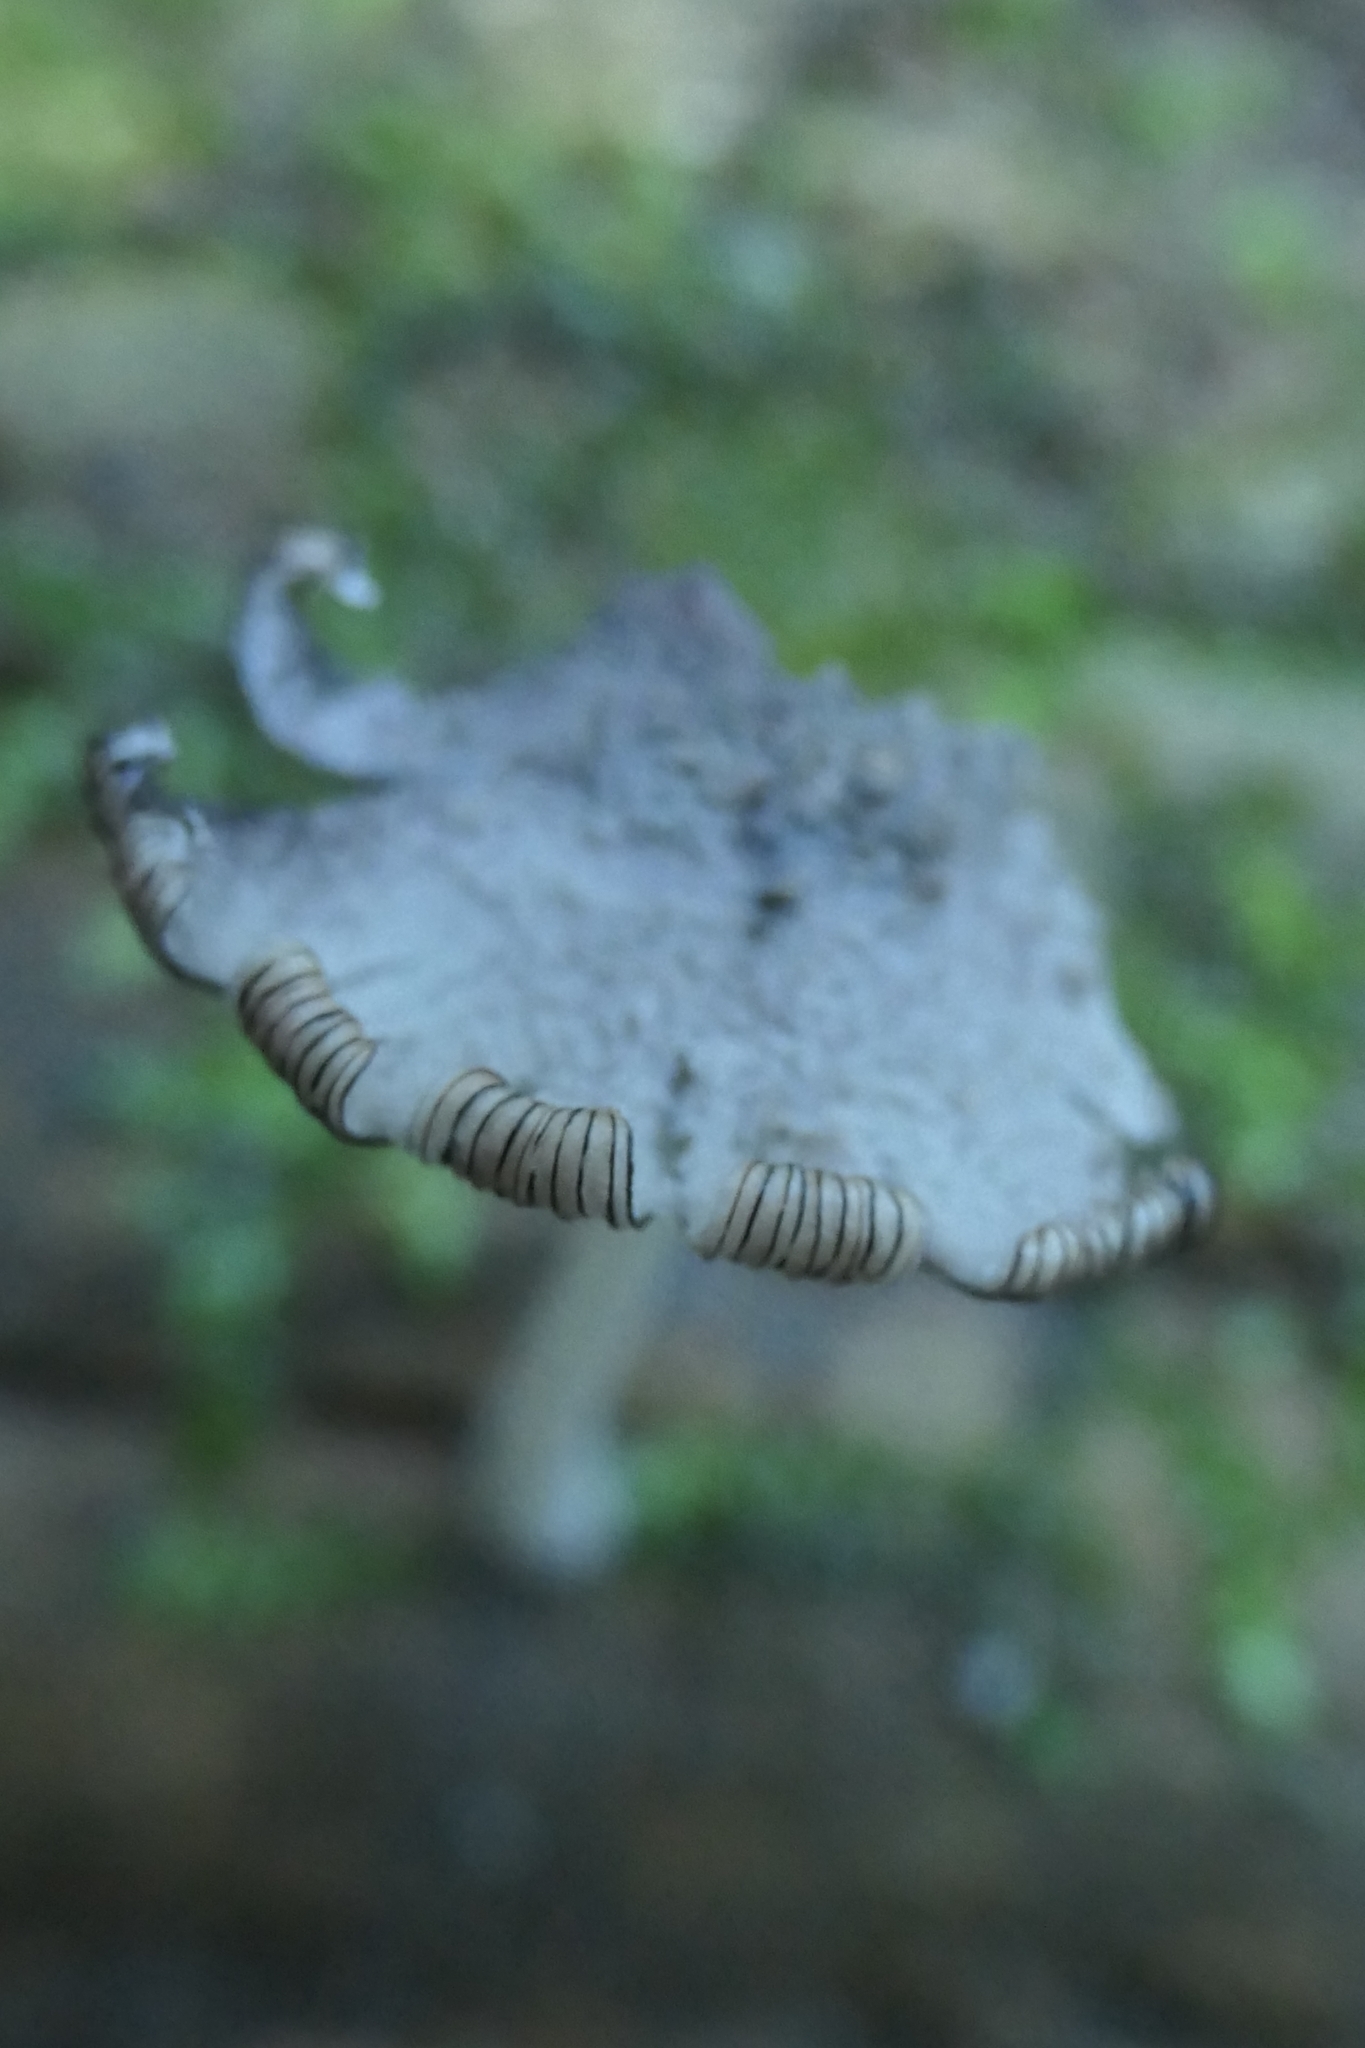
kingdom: Fungi
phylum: Basidiomycota
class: Agaricomycetes
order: Agaricales
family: Psathyrellaceae
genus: Coprinopsis
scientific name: Coprinopsis laanii
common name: Dotty inkcap
